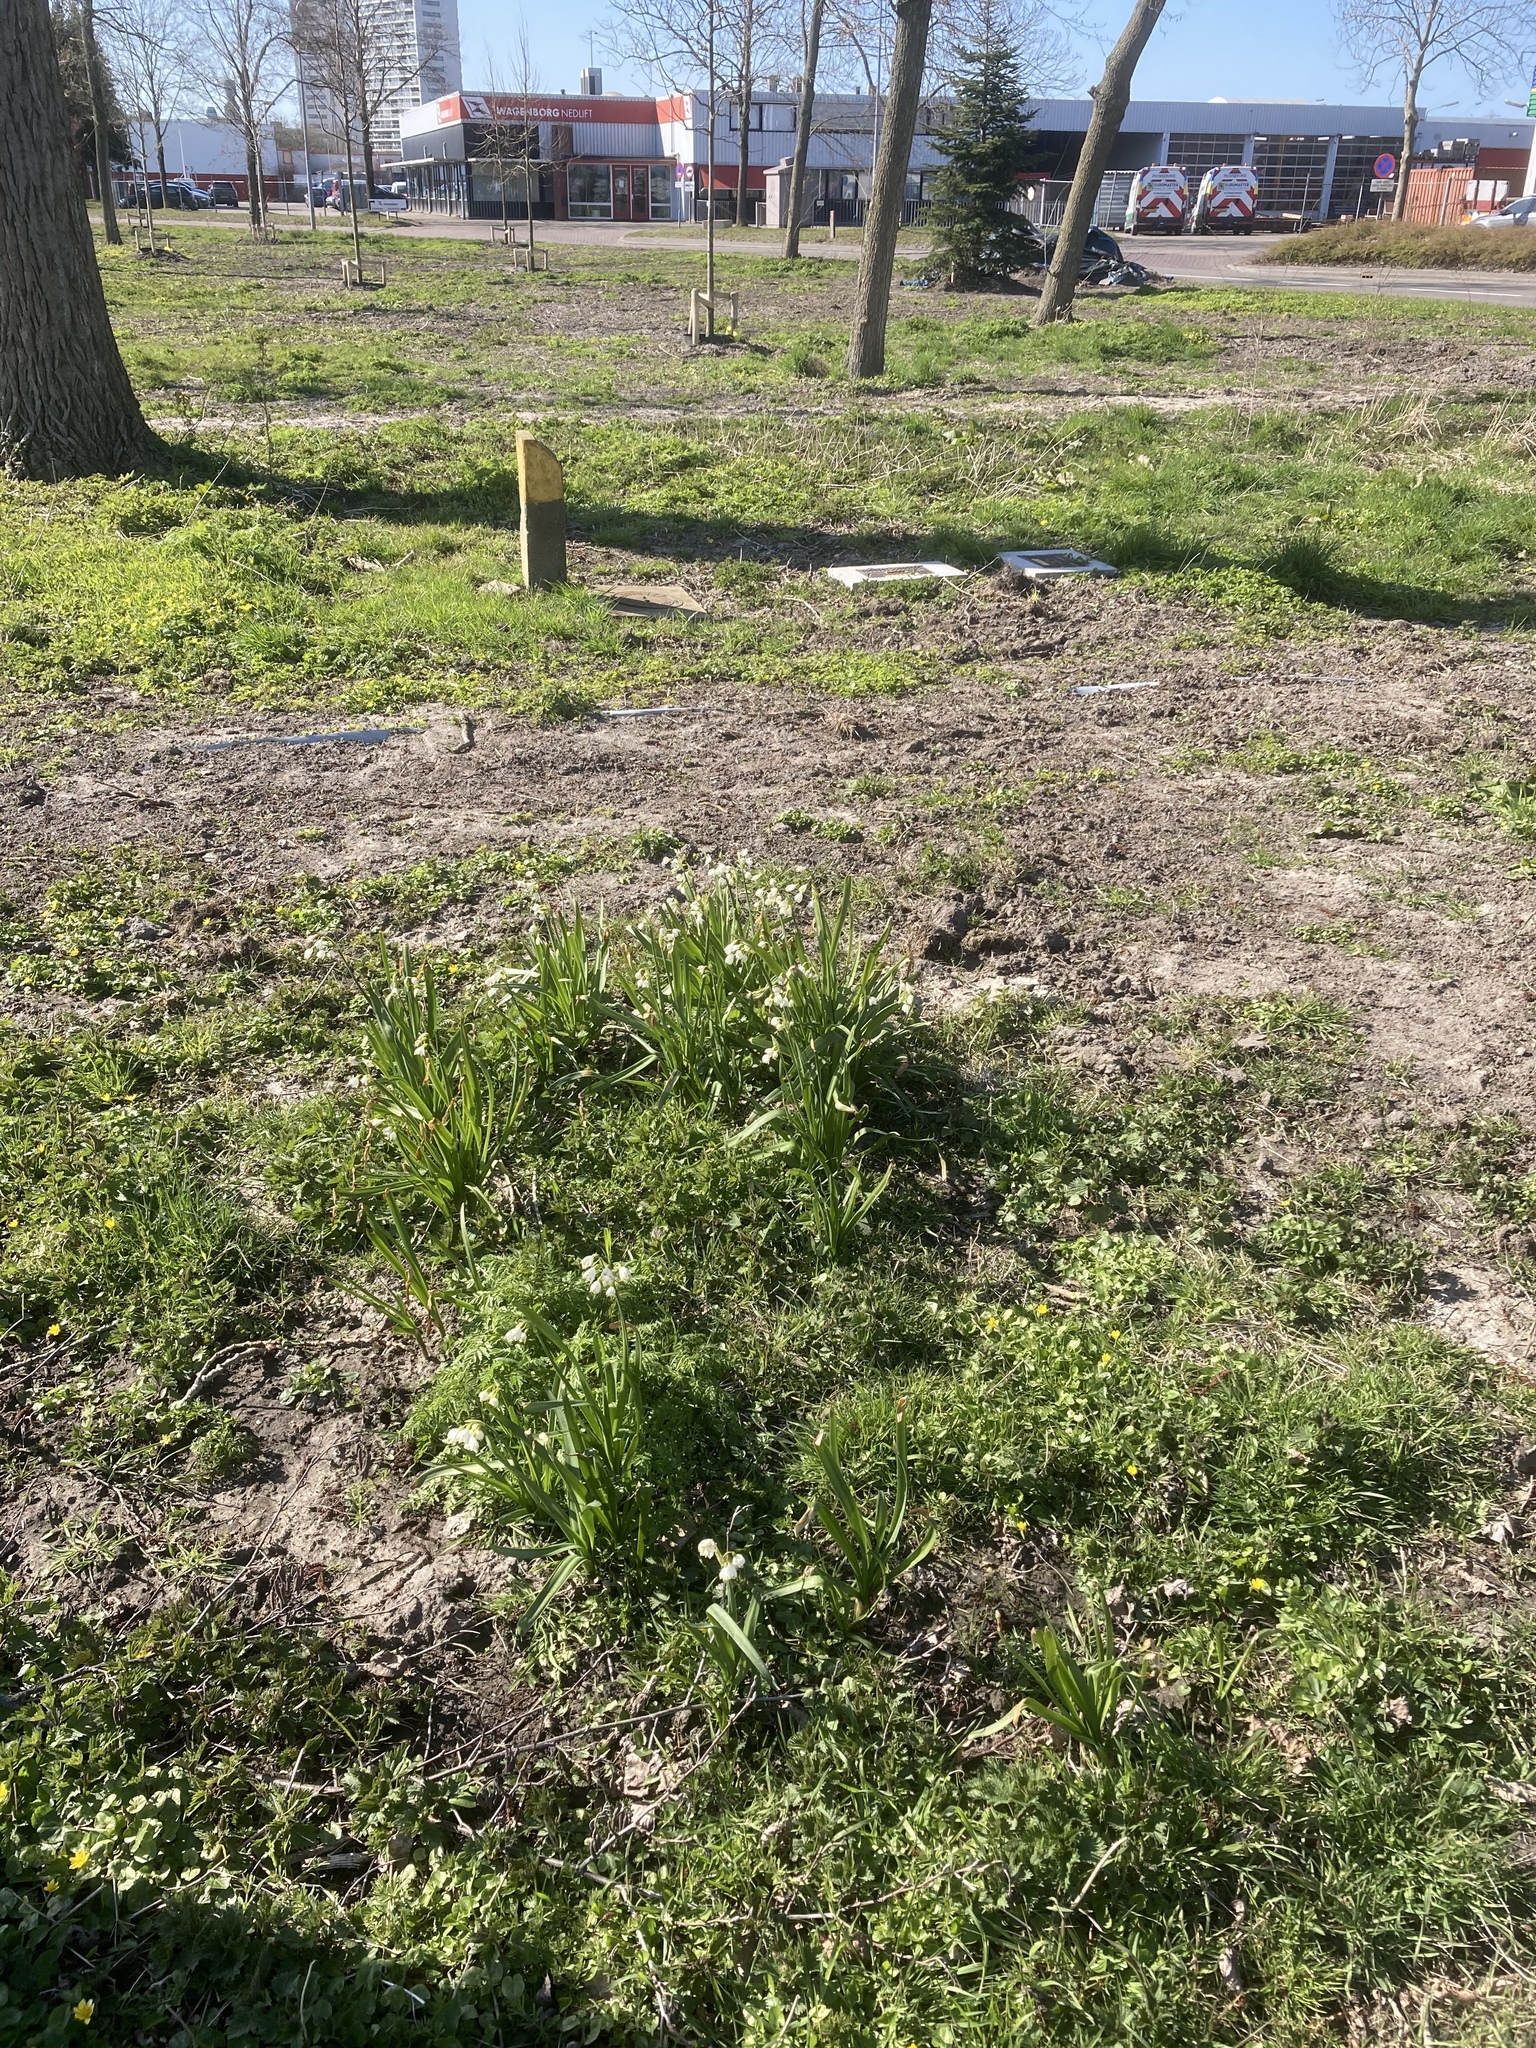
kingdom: Plantae
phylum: Tracheophyta
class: Liliopsida
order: Asparagales
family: Amaryllidaceae
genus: Leucojum
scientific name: Leucojum aestivum
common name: Summer snowflake
